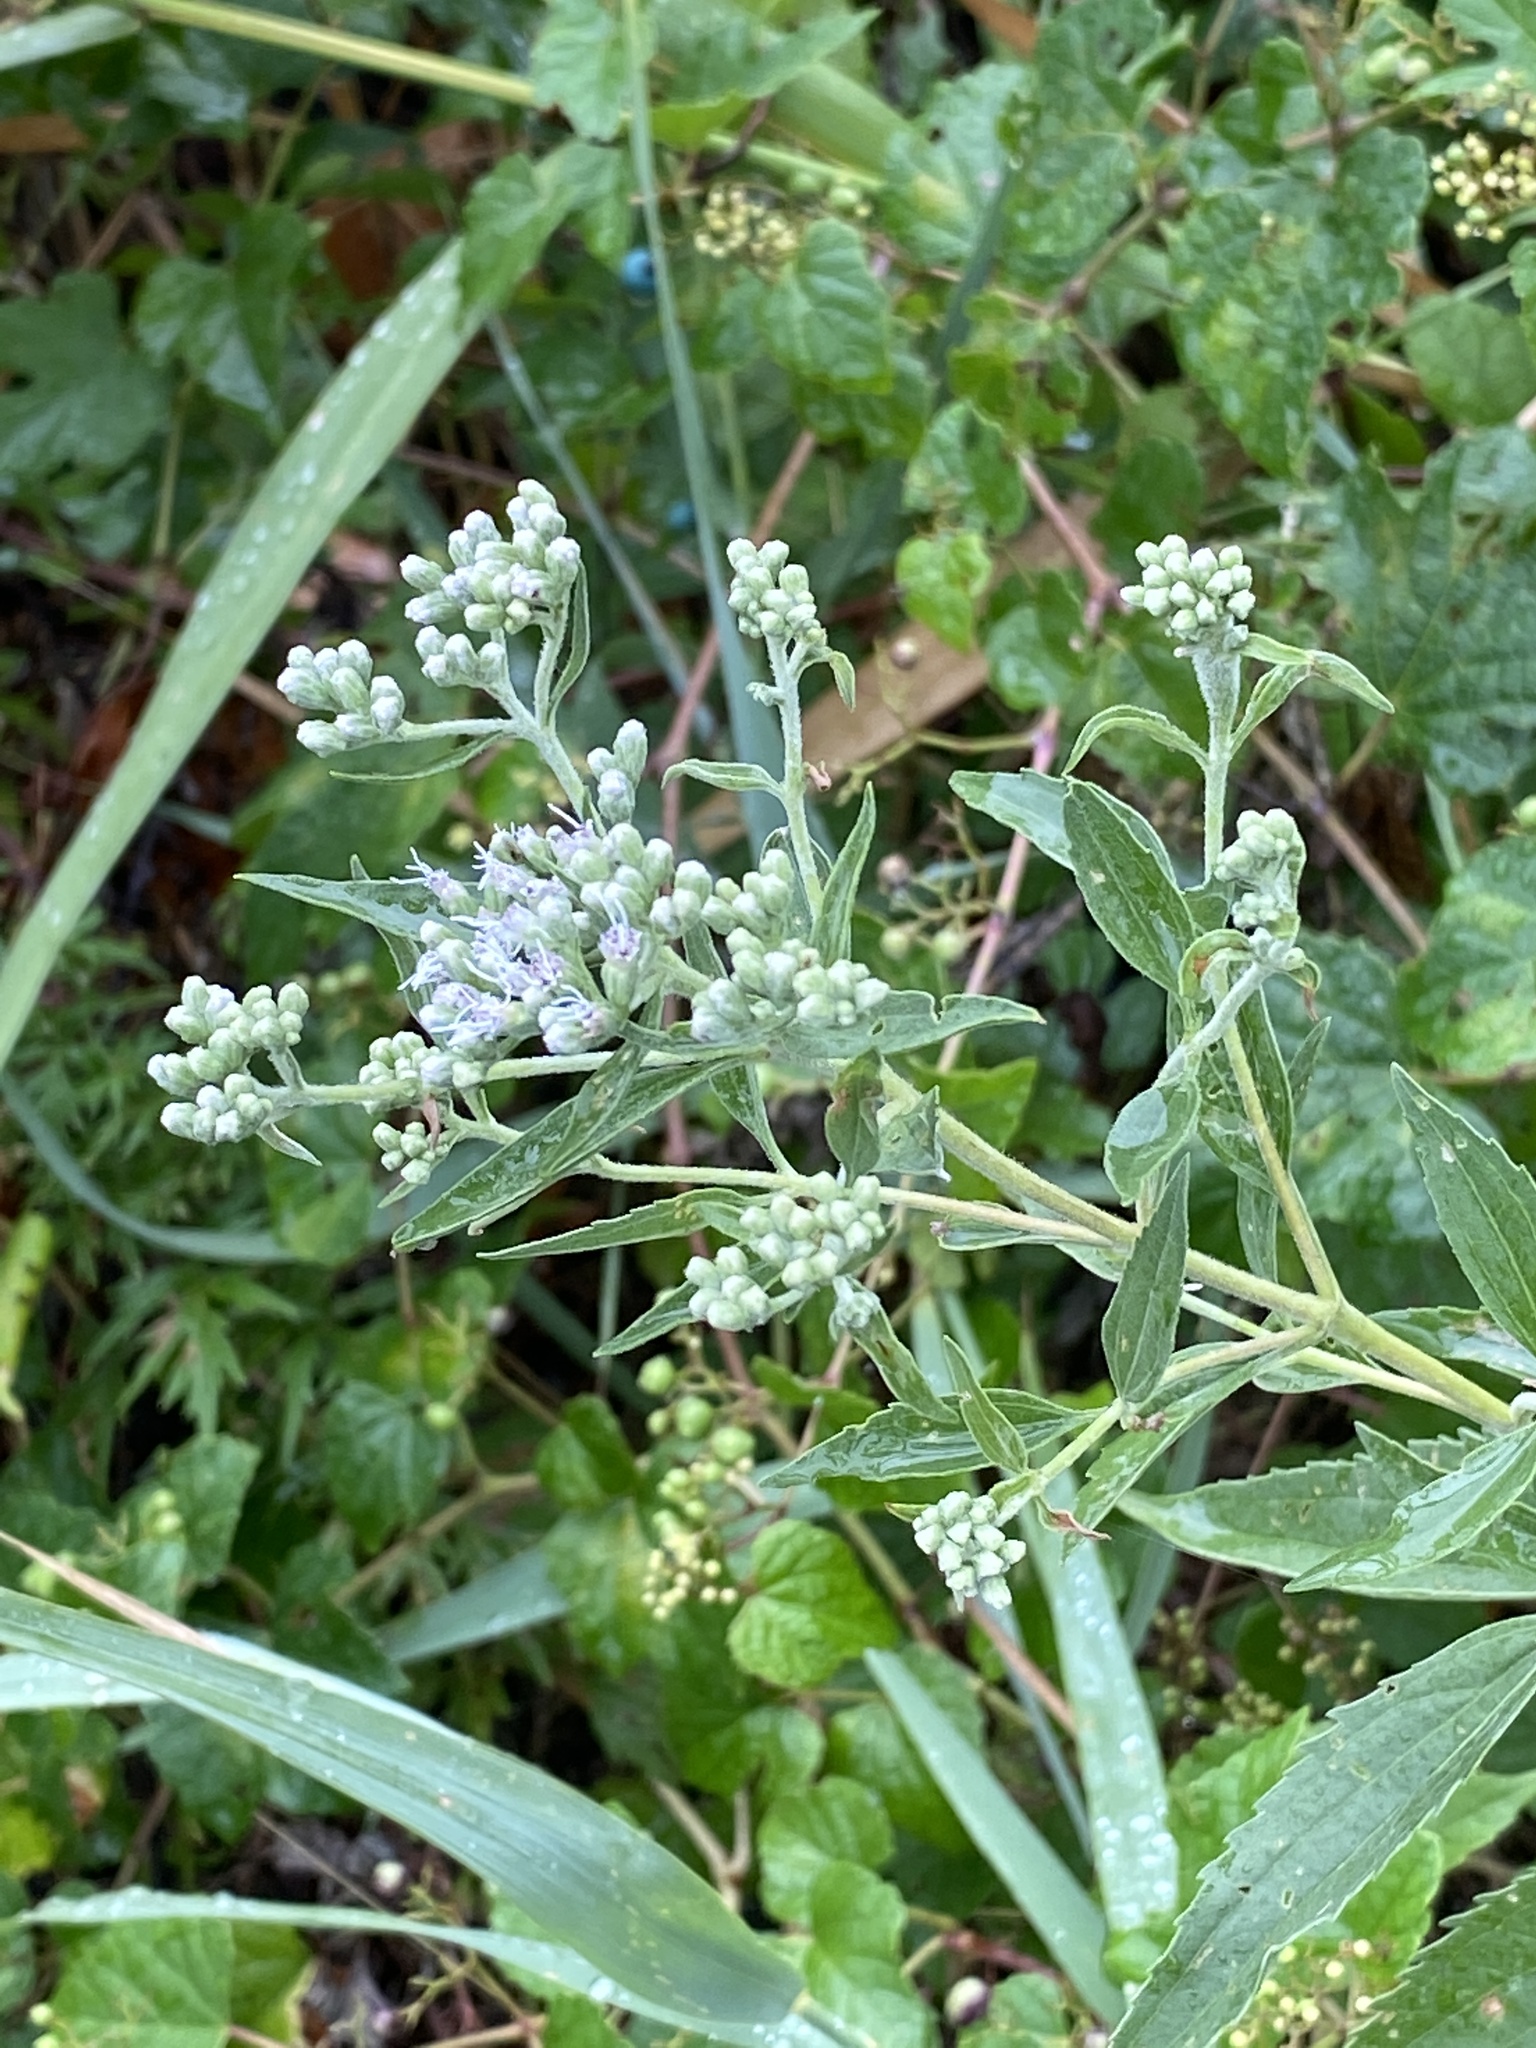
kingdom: Plantae
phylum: Tracheophyta
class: Magnoliopsida
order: Asterales
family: Asteraceae
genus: Eupatorium
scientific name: Eupatorium serotinum
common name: Late boneset
